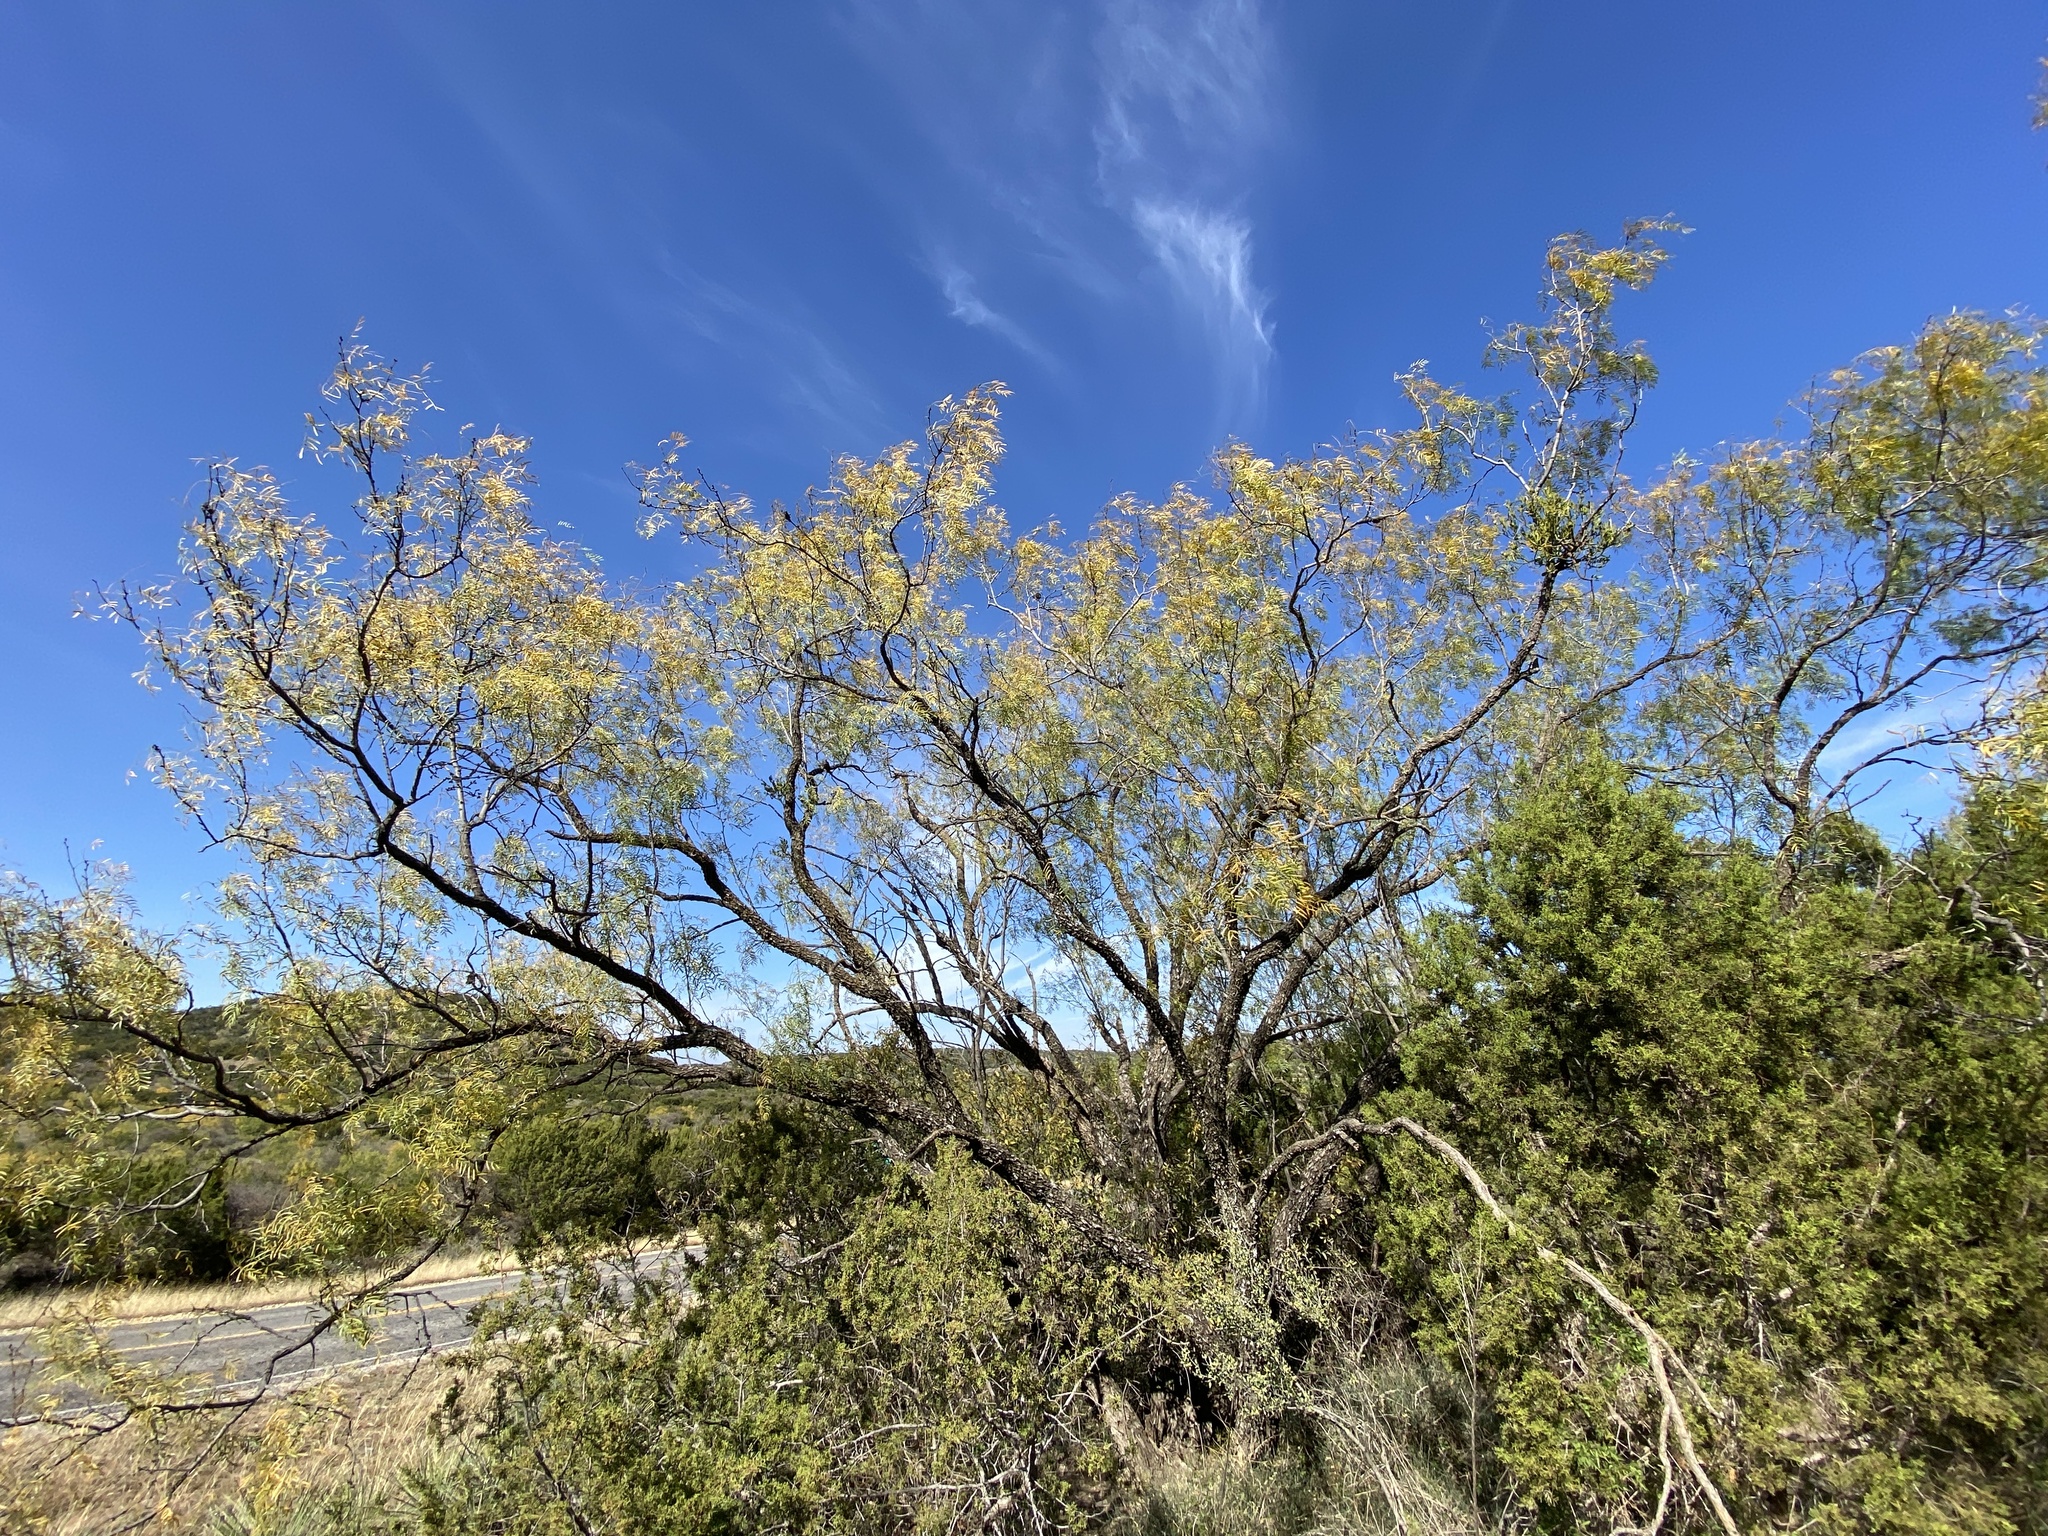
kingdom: Plantae
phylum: Tracheophyta
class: Magnoliopsida
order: Fabales
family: Fabaceae
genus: Prosopis
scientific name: Prosopis glandulosa
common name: Honey mesquite
